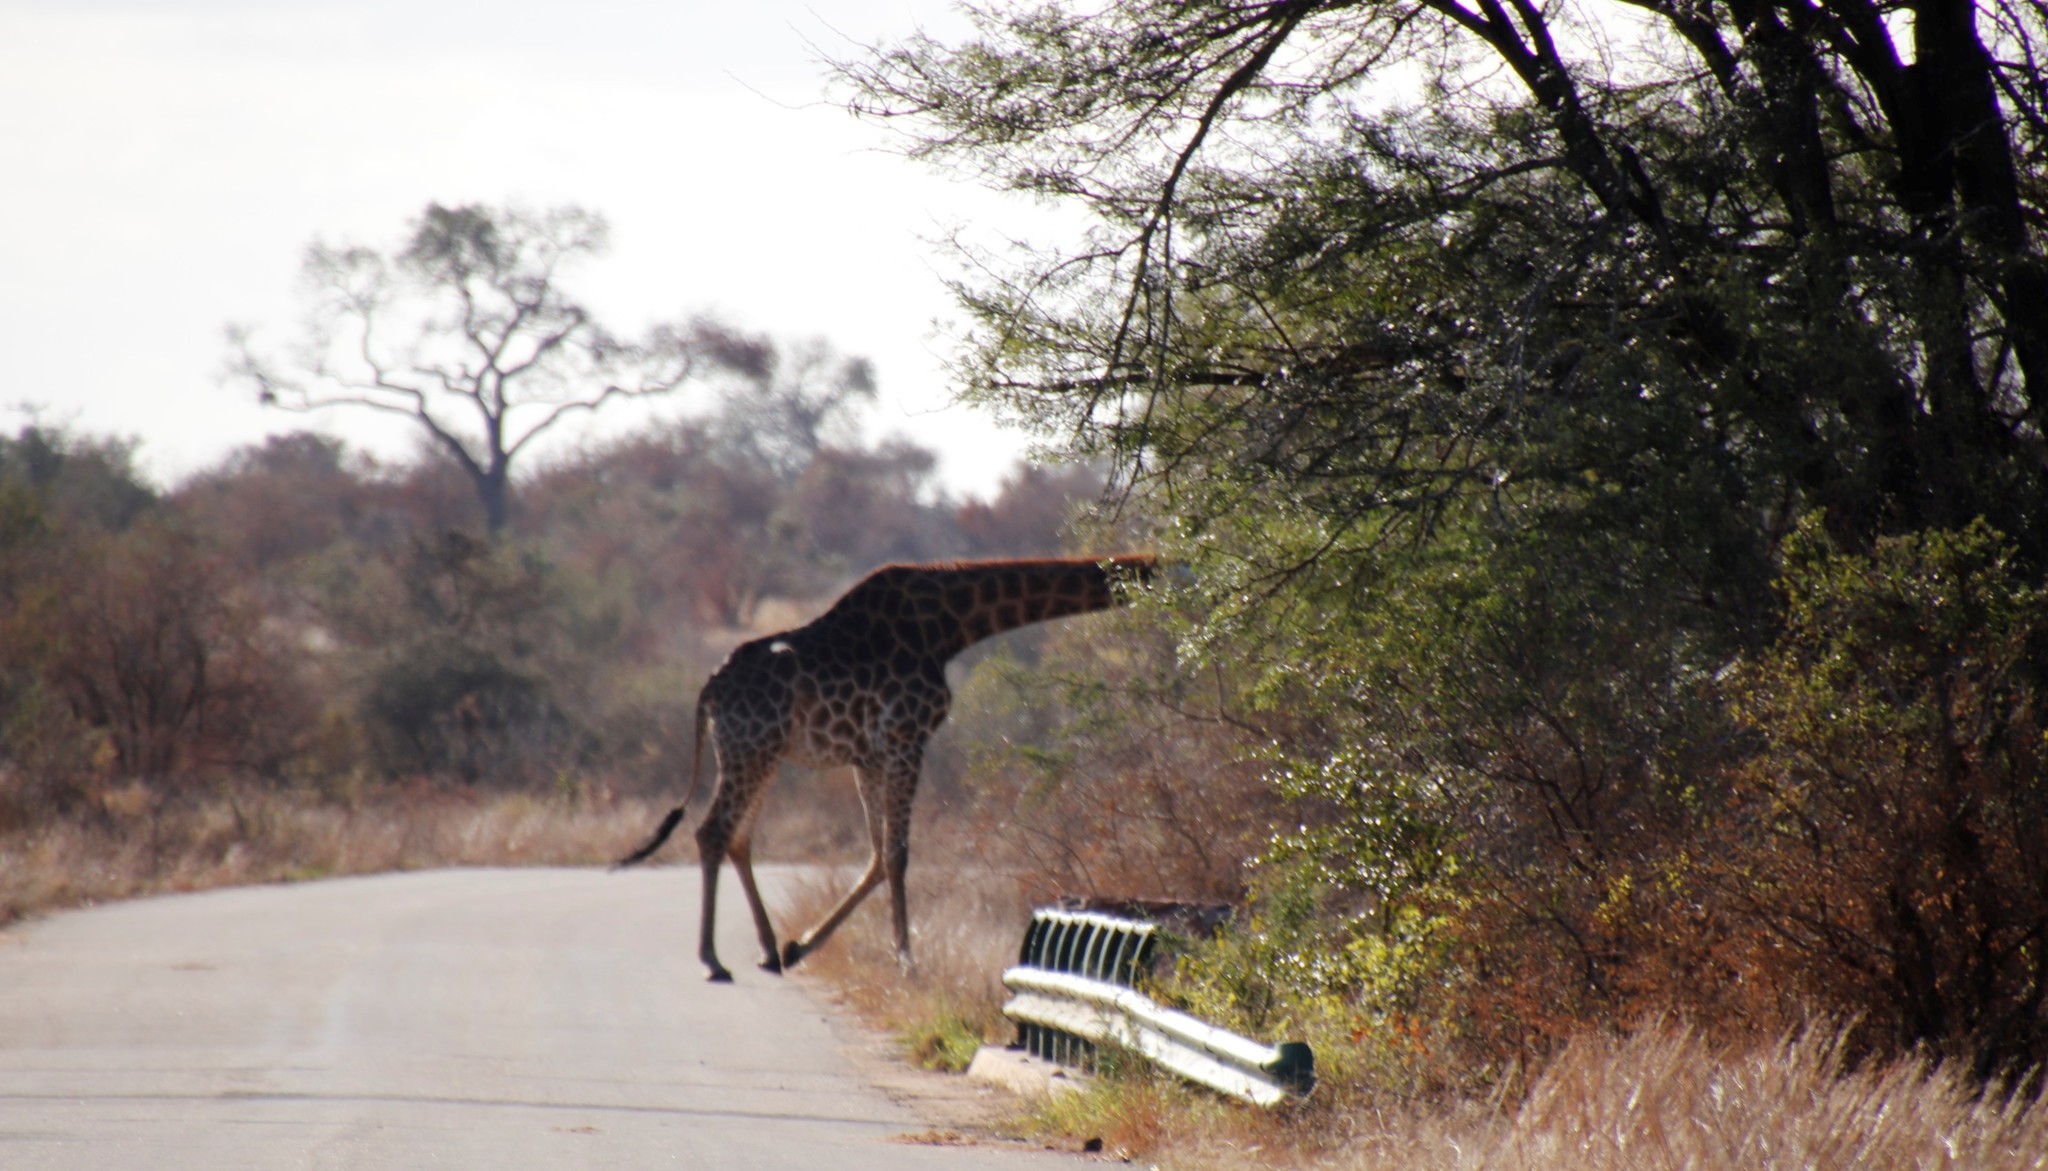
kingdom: Animalia
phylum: Chordata
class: Mammalia
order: Artiodactyla
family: Giraffidae
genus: Giraffa
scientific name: Giraffa giraffa
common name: Southern giraffe
